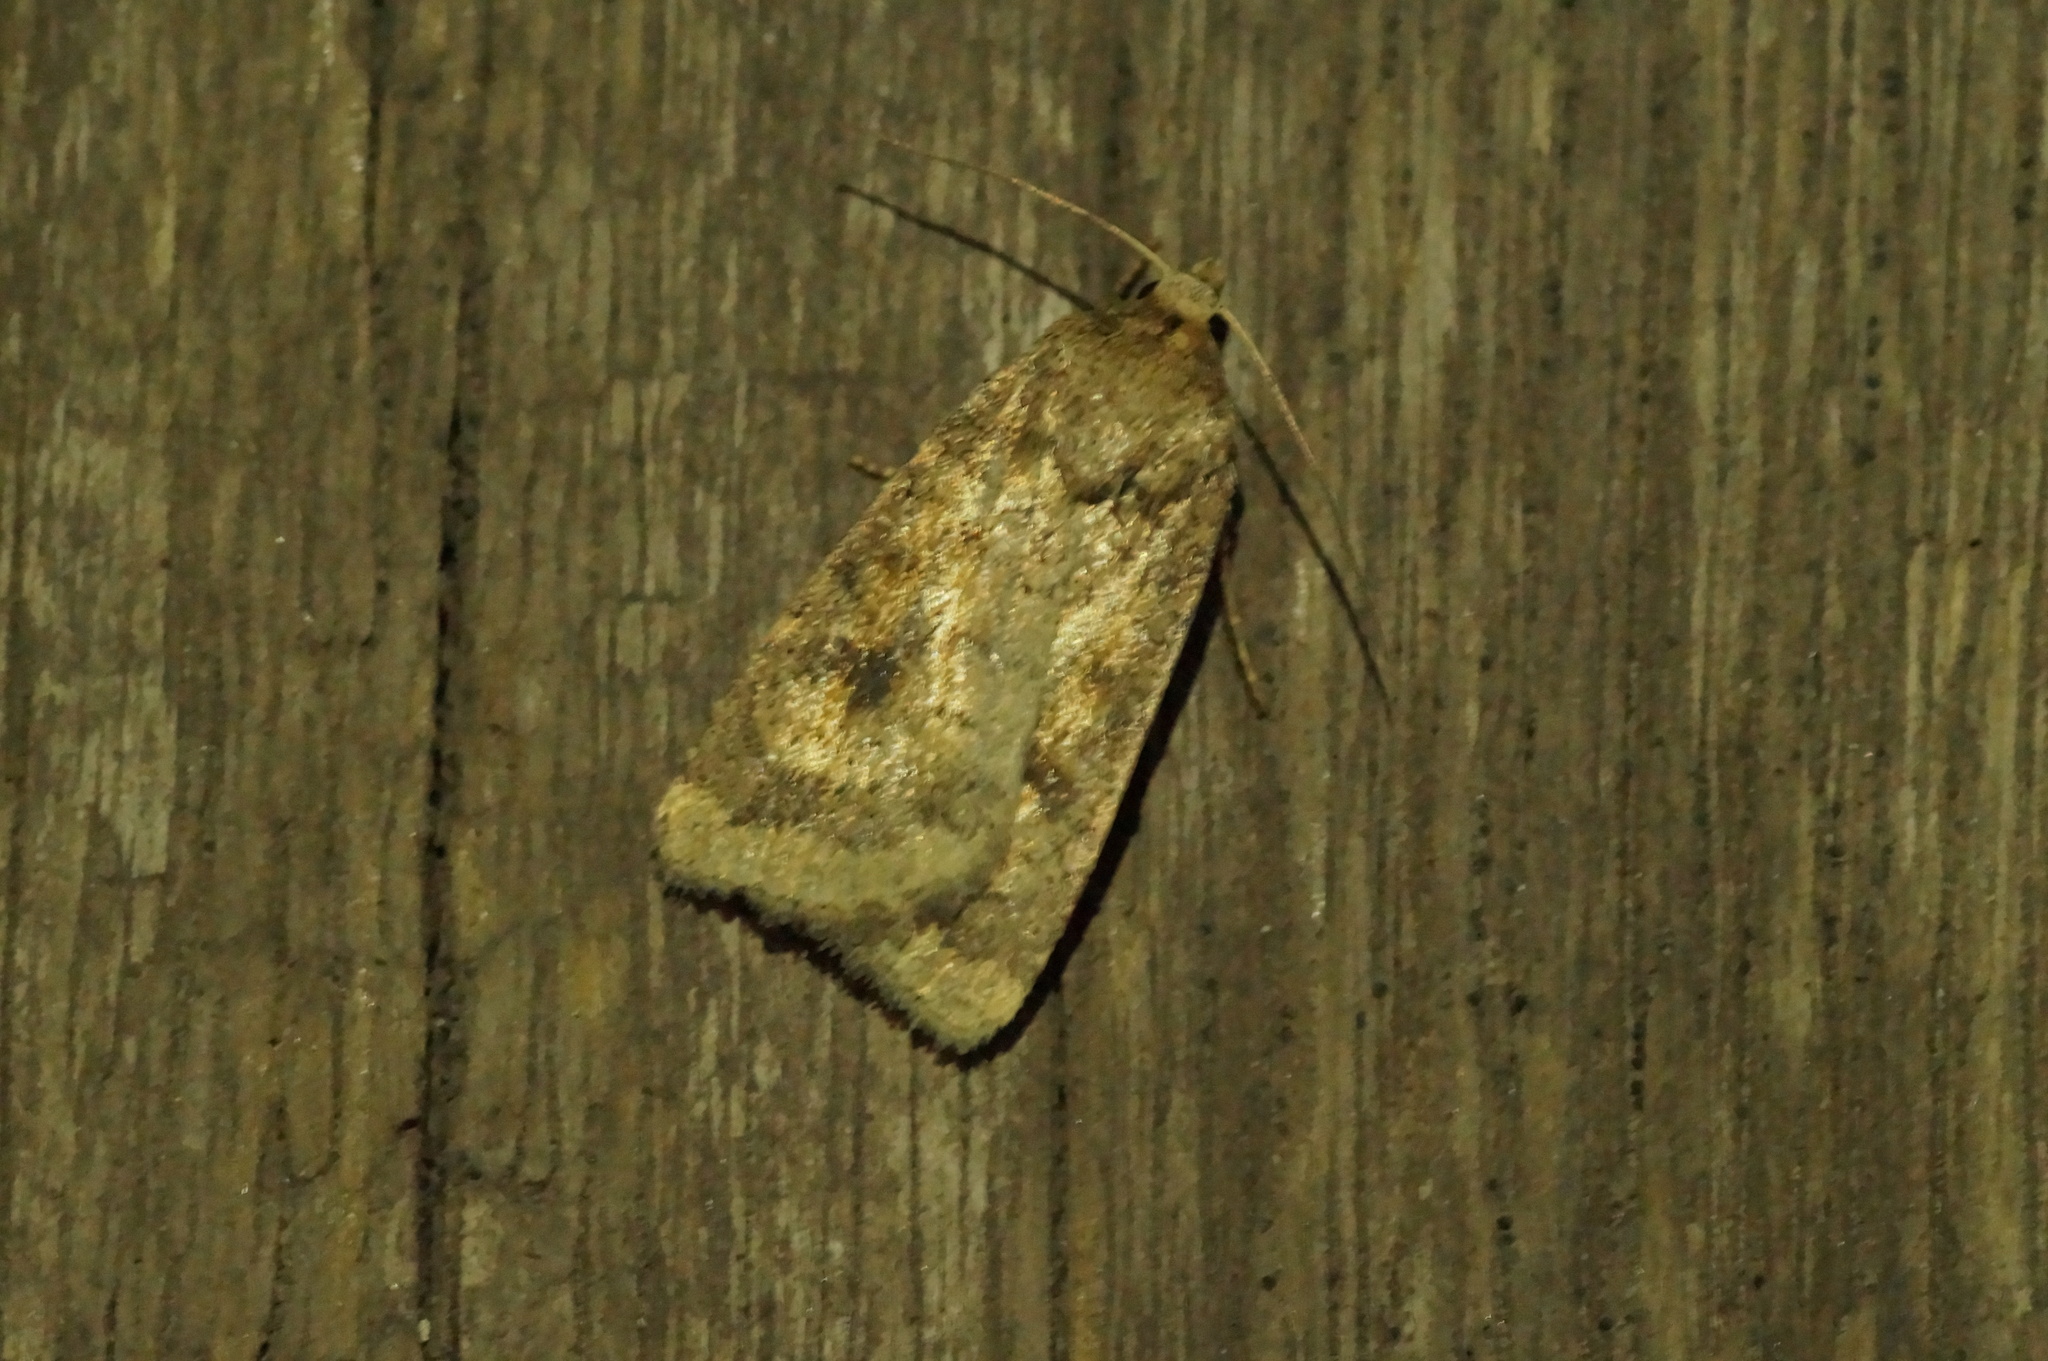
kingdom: Animalia
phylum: Arthropoda
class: Insecta
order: Lepidoptera
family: Noctuidae
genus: Caradrina
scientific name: Caradrina morpheus
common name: Mottled rustic
